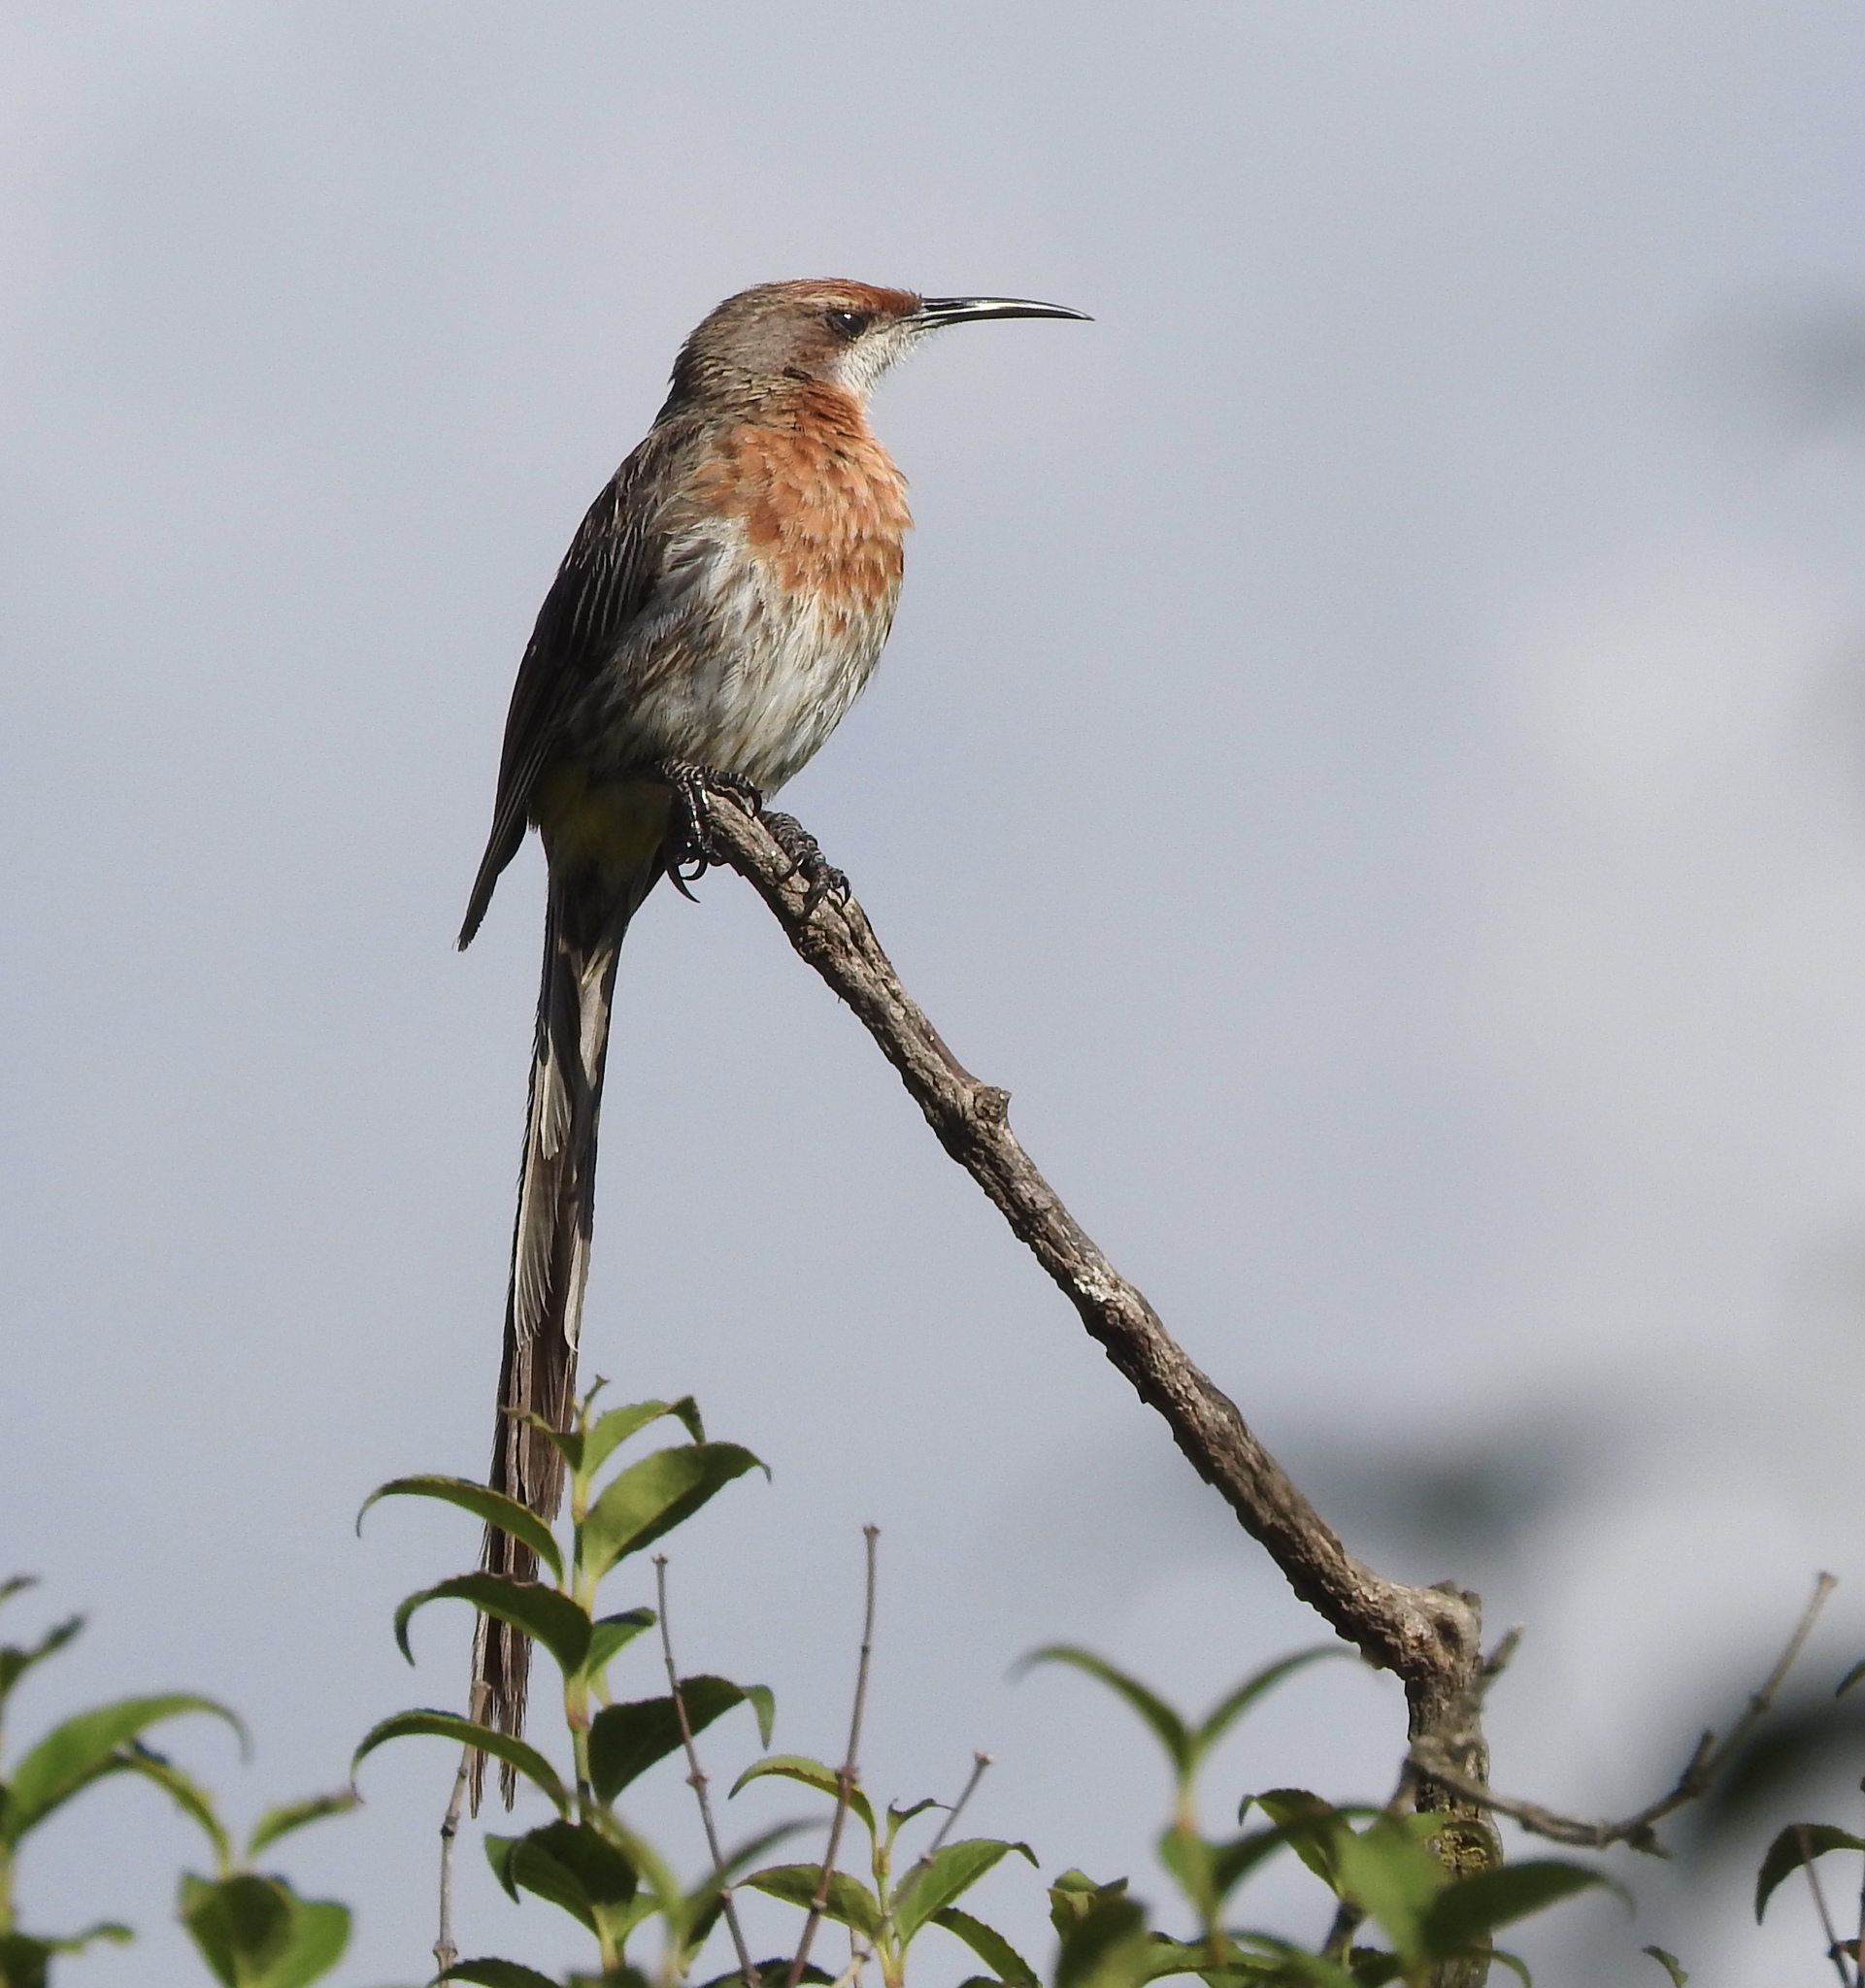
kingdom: Animalia
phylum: Chordata
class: Aves
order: Passeriformes
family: Promeropidae
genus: Promerops
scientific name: Promerops gurneyi
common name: Gurney's sugarbird
